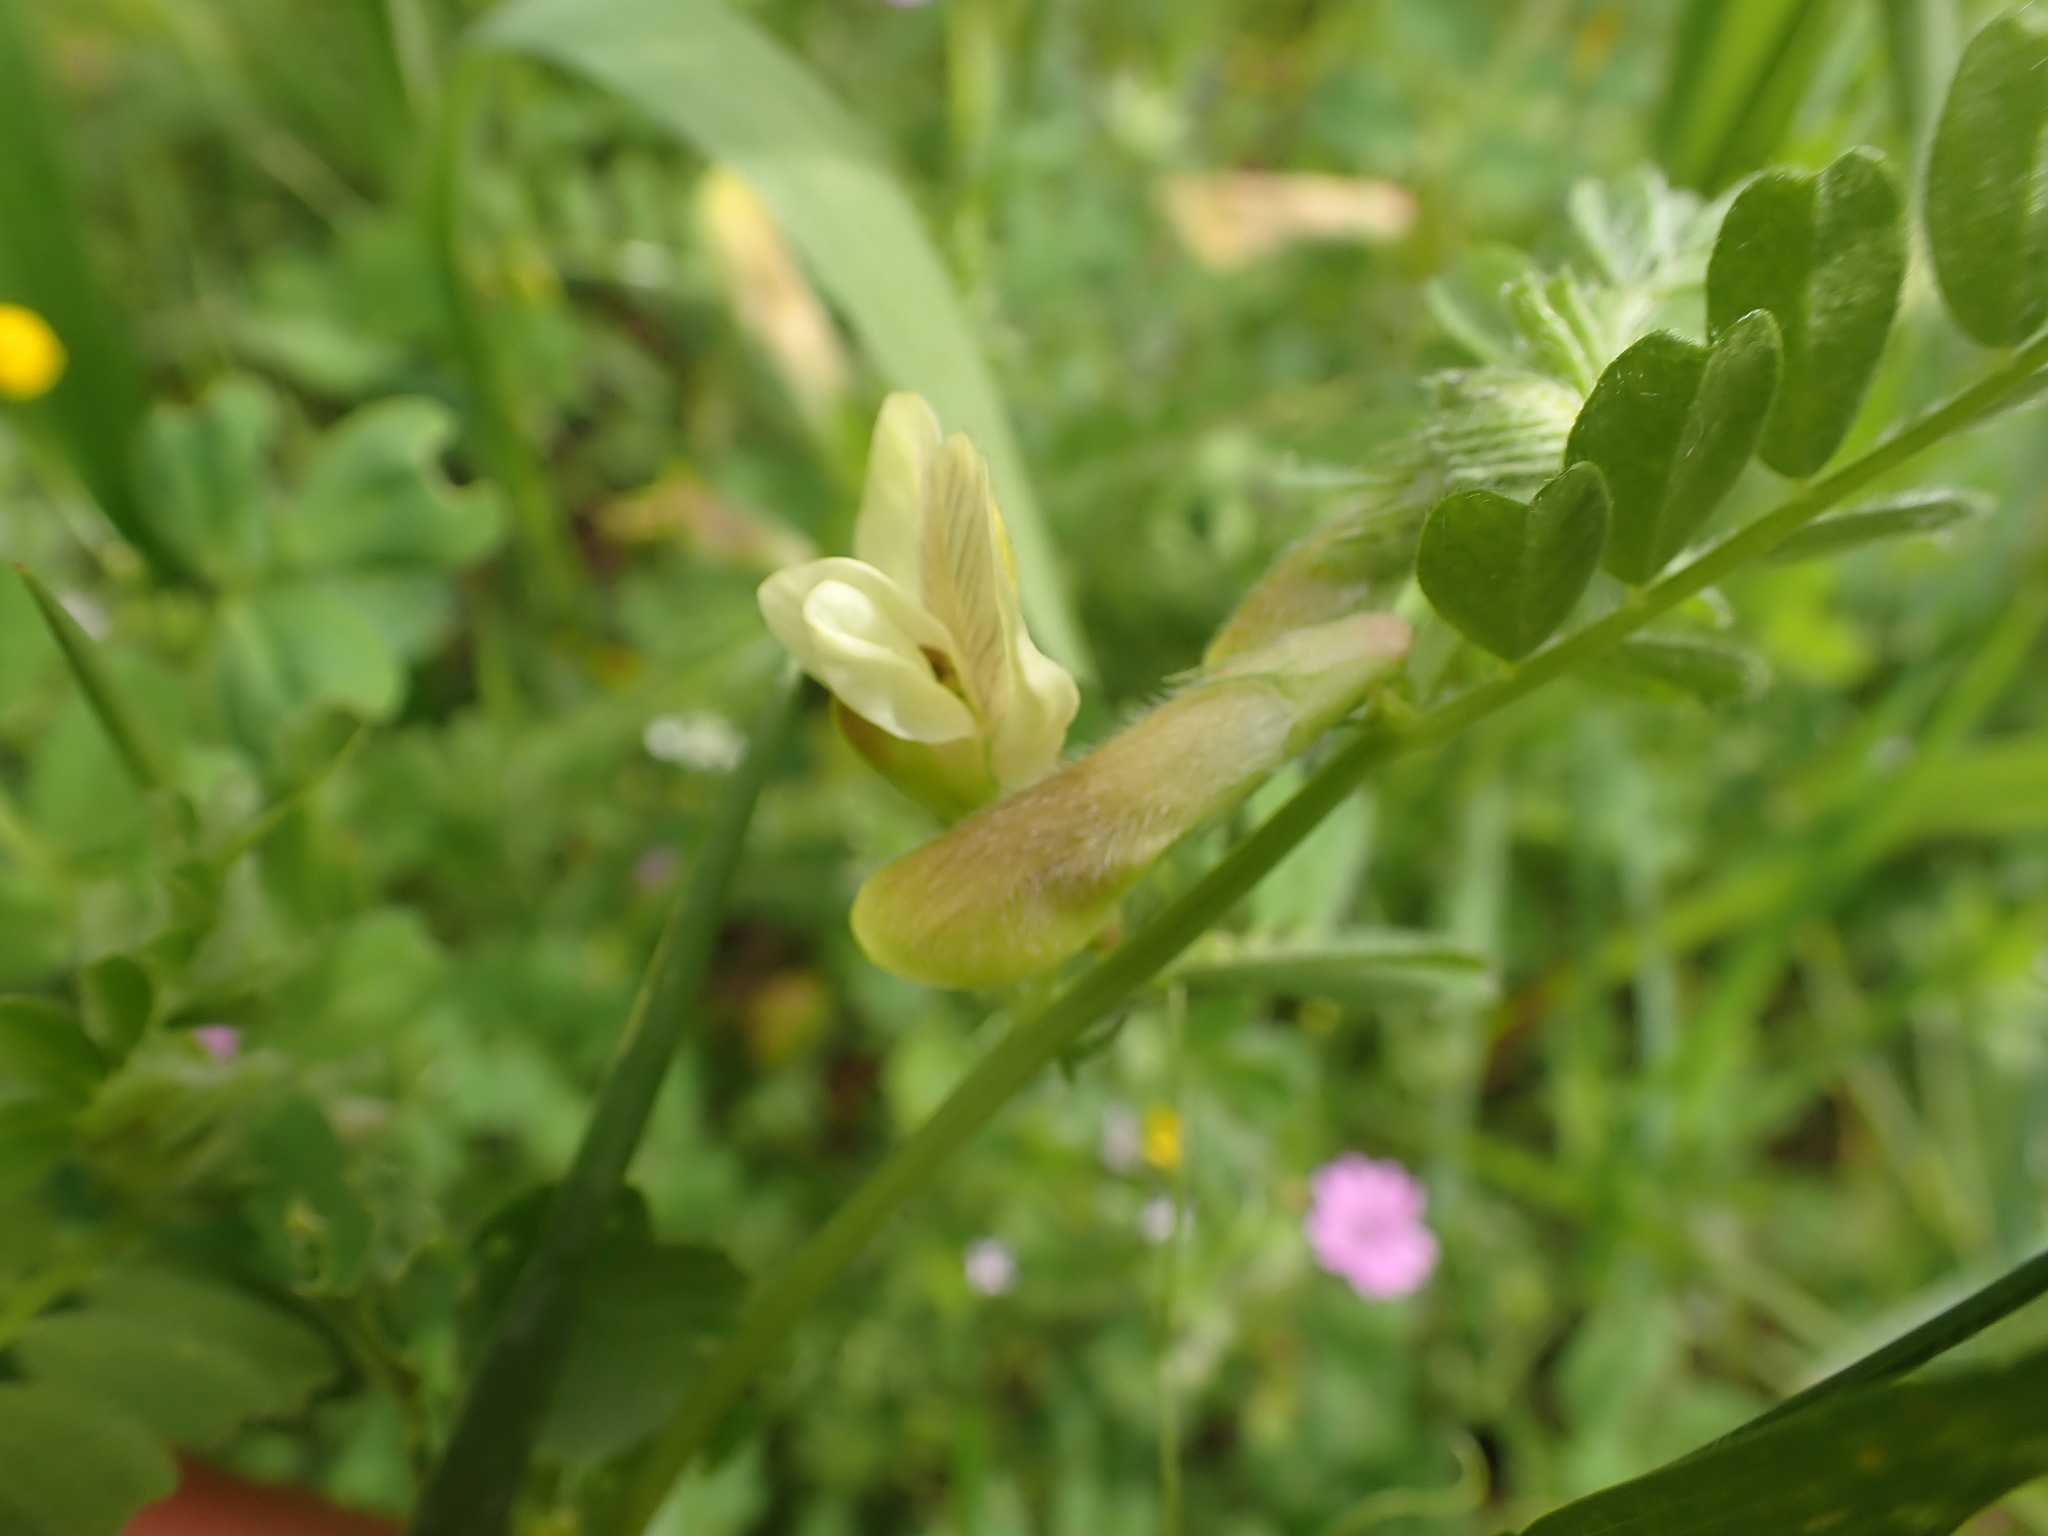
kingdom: Plantae
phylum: Tracheophyta
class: Magnoliopsida
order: Fabales
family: Fabaceae
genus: Vicia
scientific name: Vicia hybrida
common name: Hairy yellow vetch
